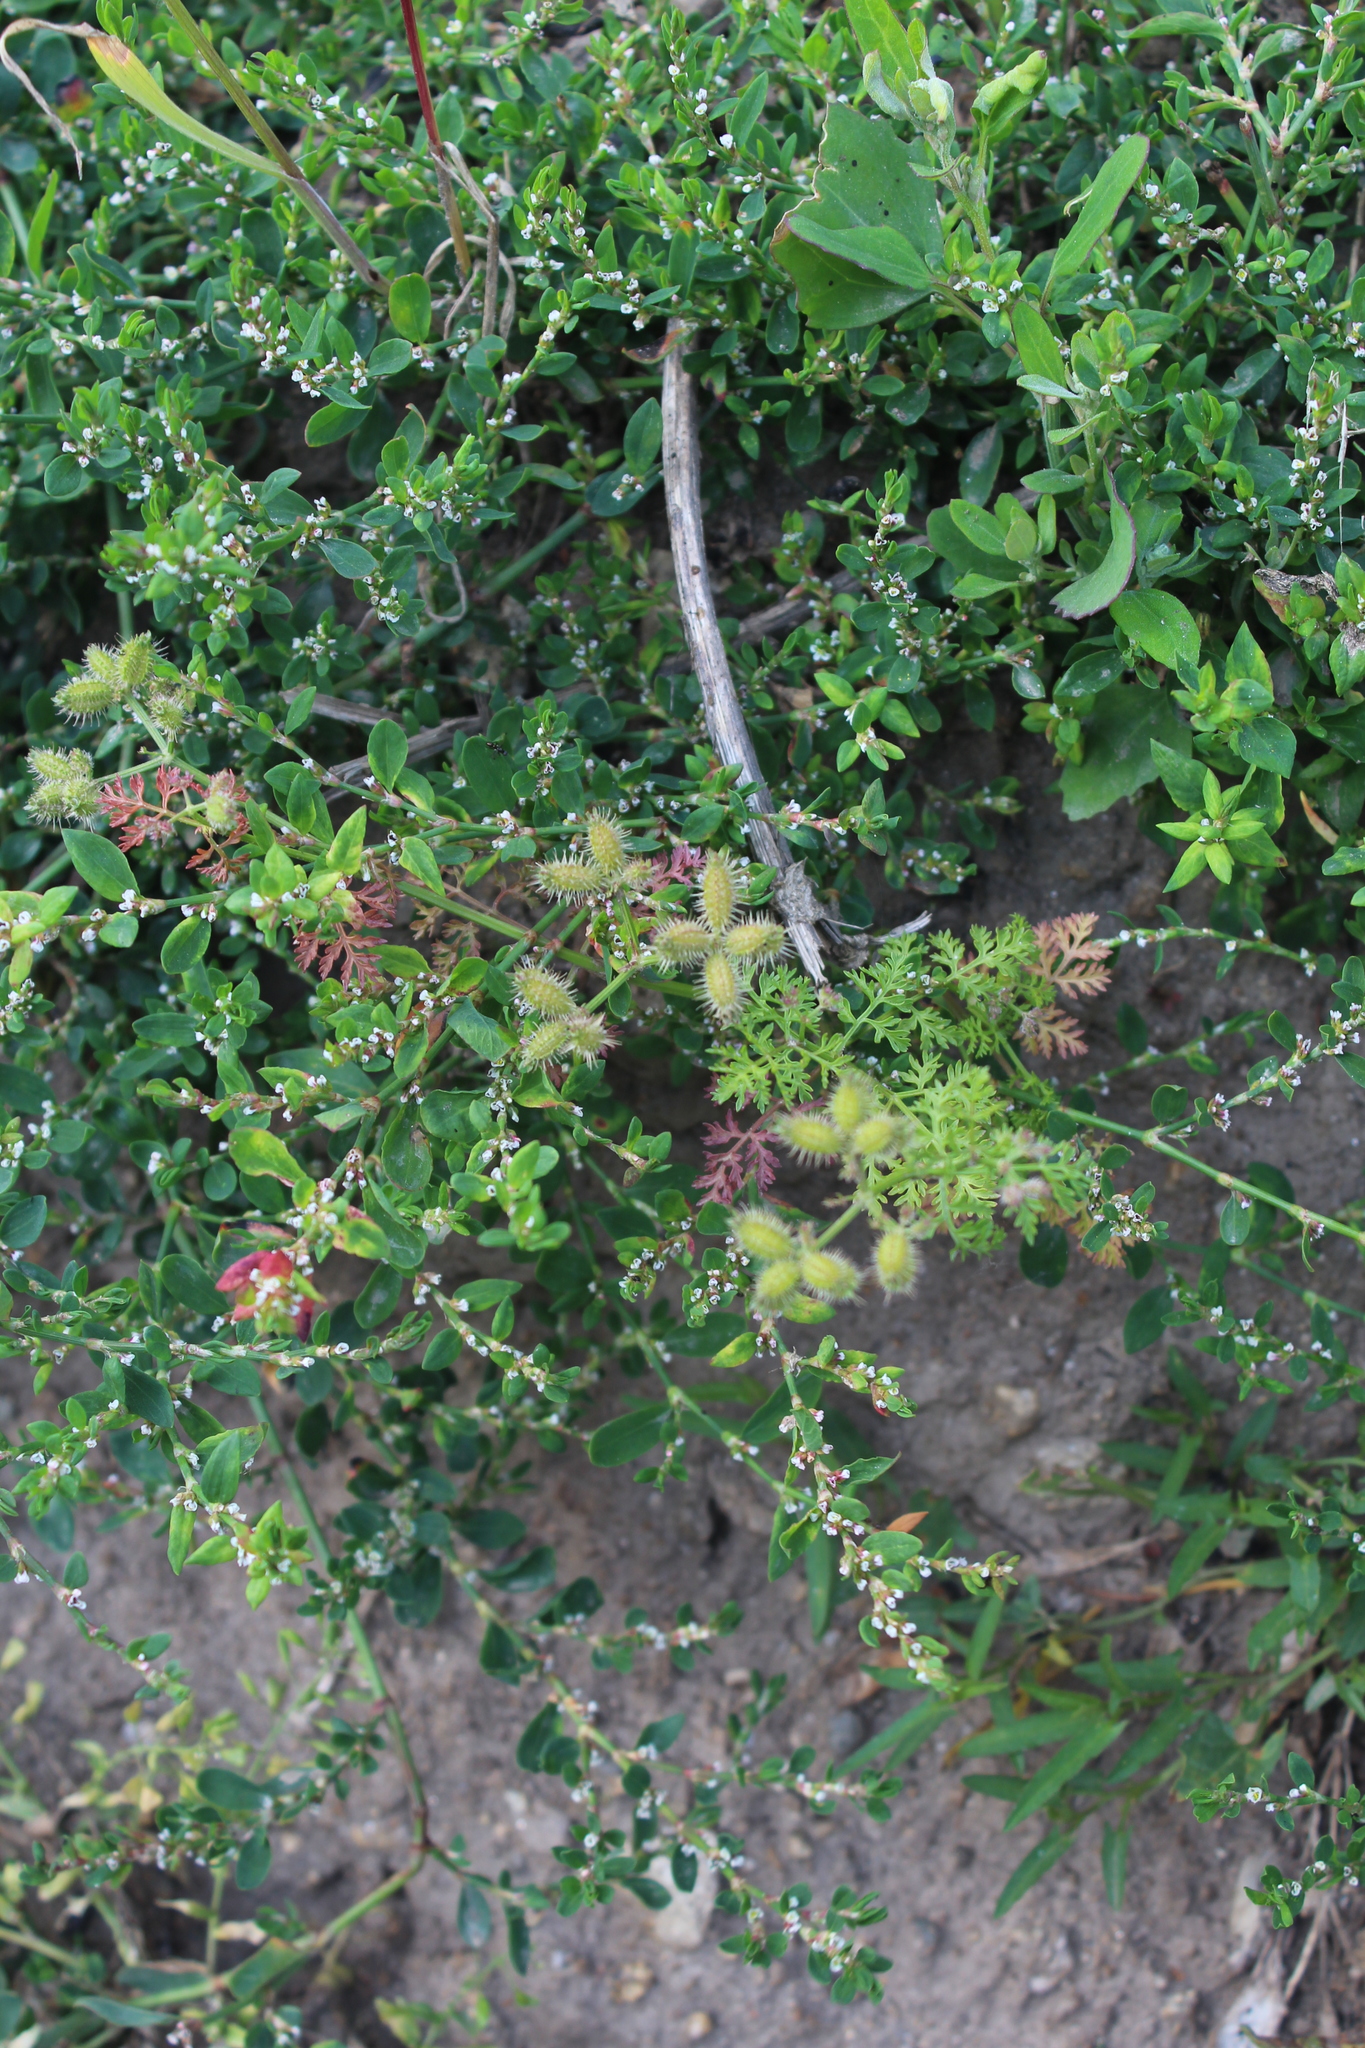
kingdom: Plantae
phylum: Tracheophyta
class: Magnoliopsida
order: Apiales
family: Apiaceae
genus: Caucalis
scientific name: Caucalis platycarpos
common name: Small bur-parsley
